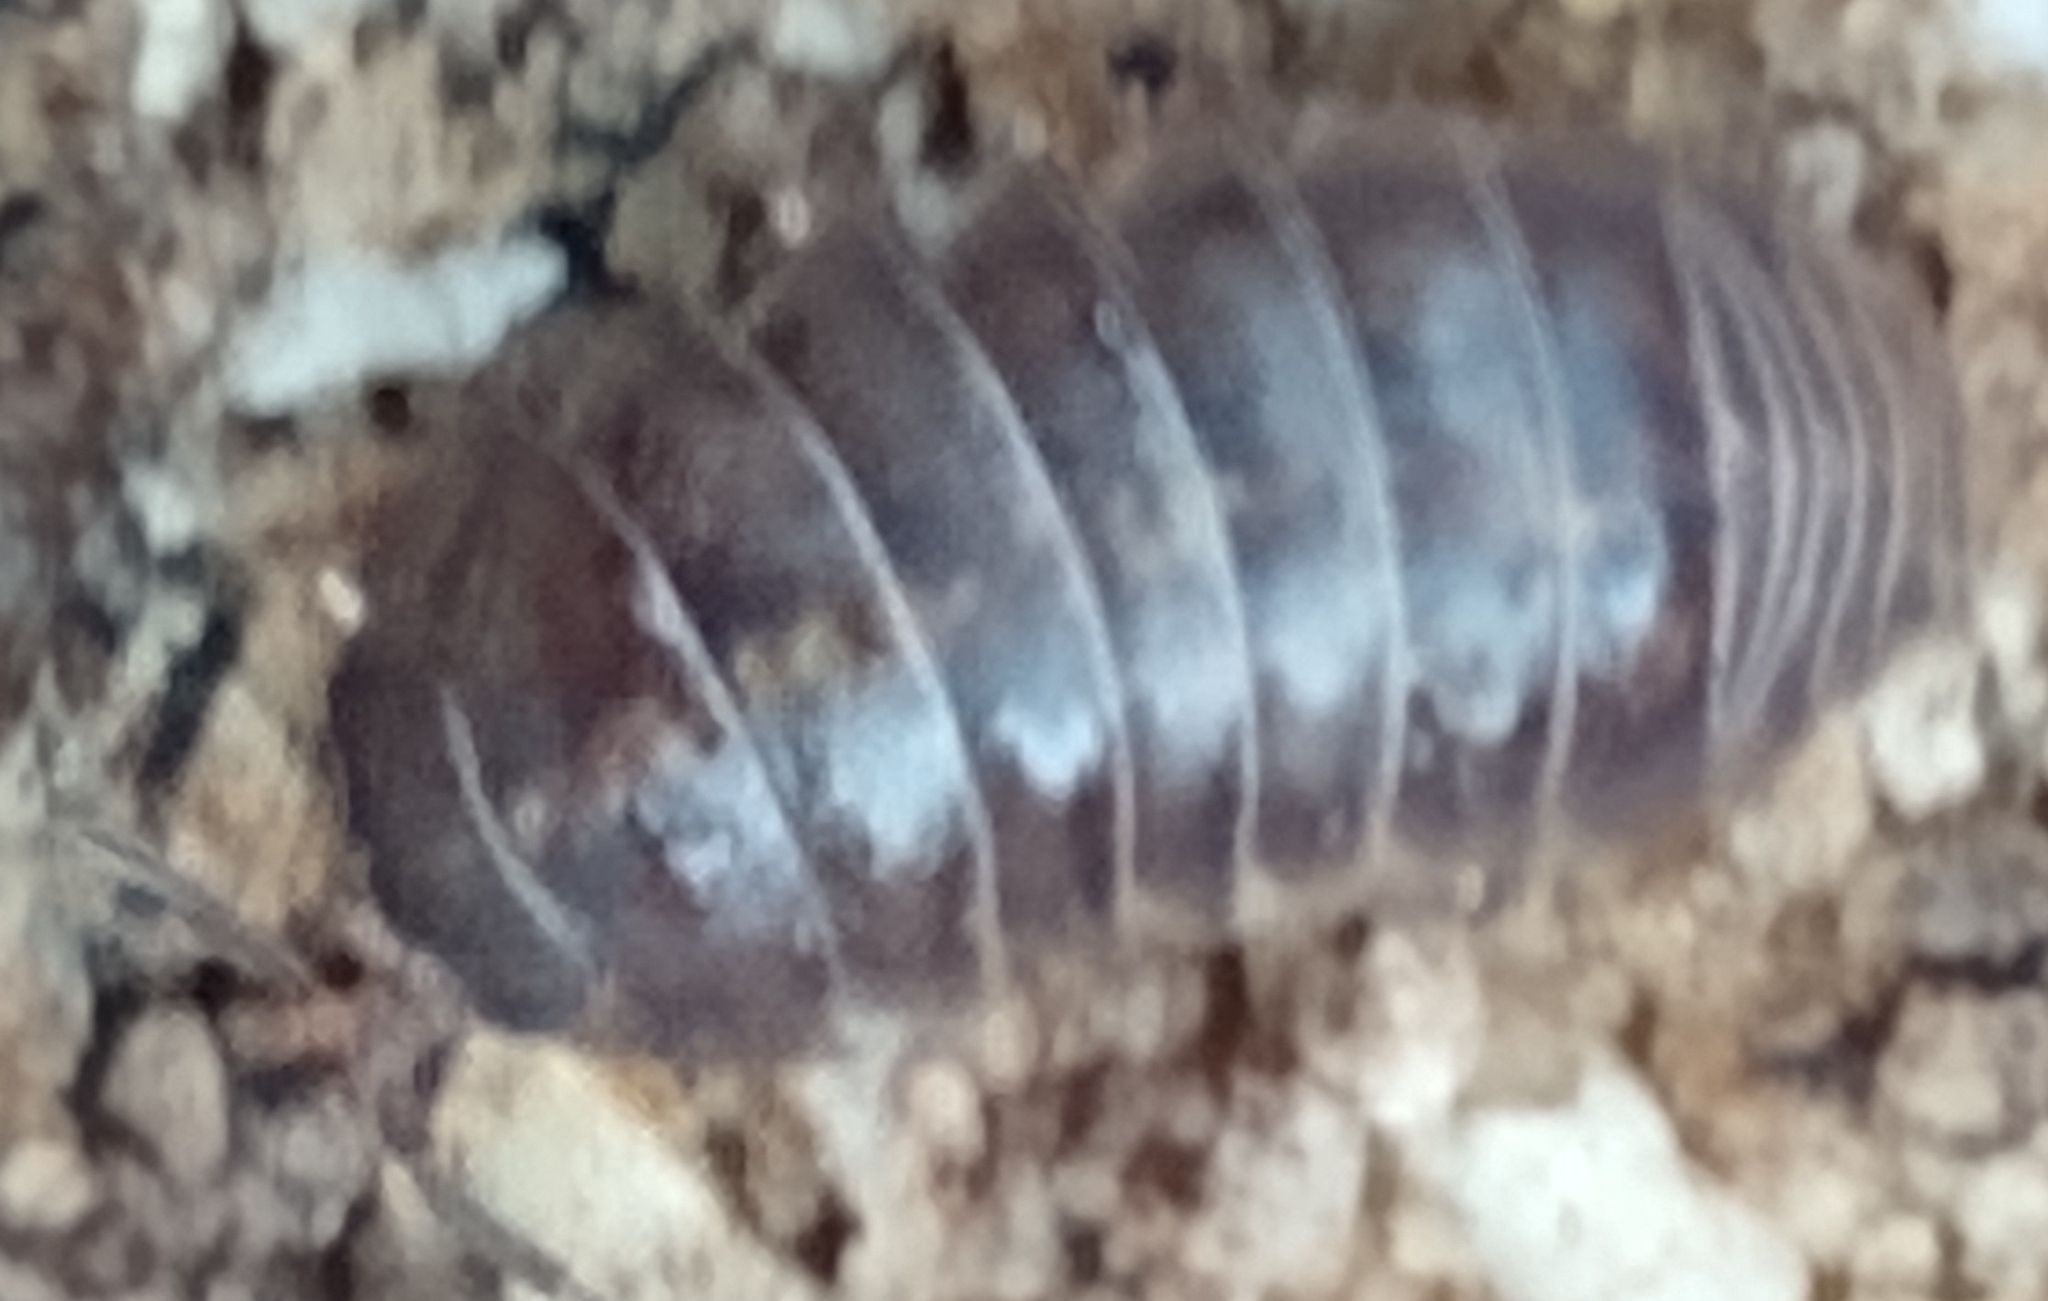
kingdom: Animalia
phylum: Arthropoda
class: Malacostraca
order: Isopoda
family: Armadillidiidae
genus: Armadillidium
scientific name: Armadillidium vulgare
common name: Common pill woodlouse
